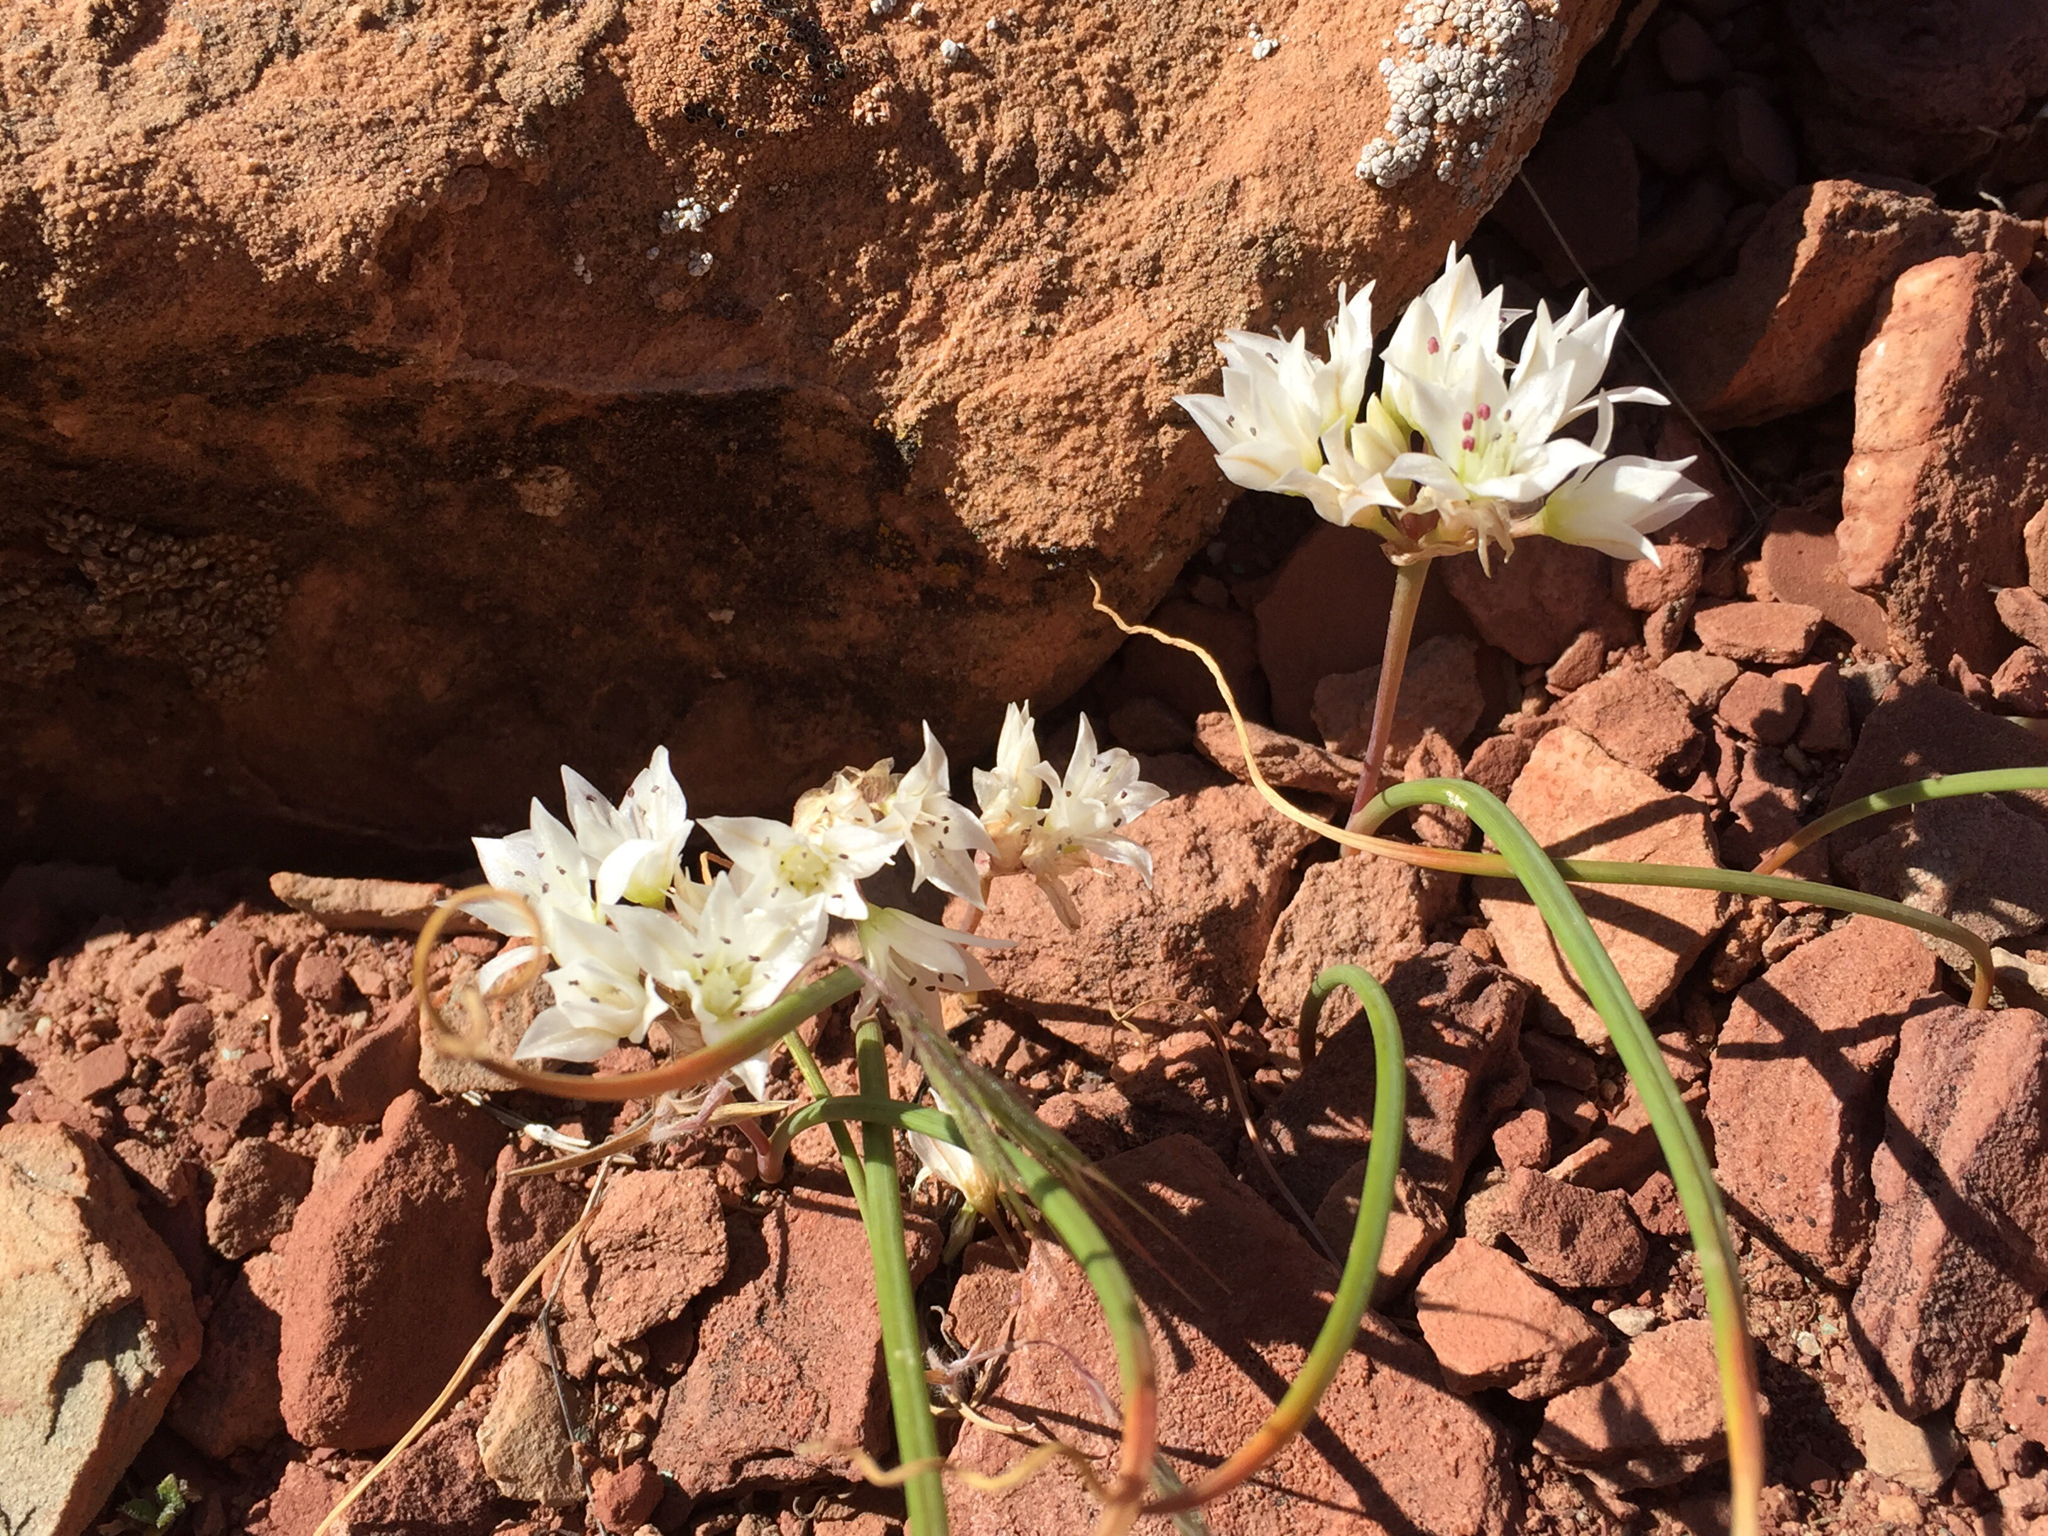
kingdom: Plantae
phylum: Tracheophyta
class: Liliopsida
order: Asparagales
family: Amaryllidaceae
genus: Allium
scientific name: Allium nevadense
